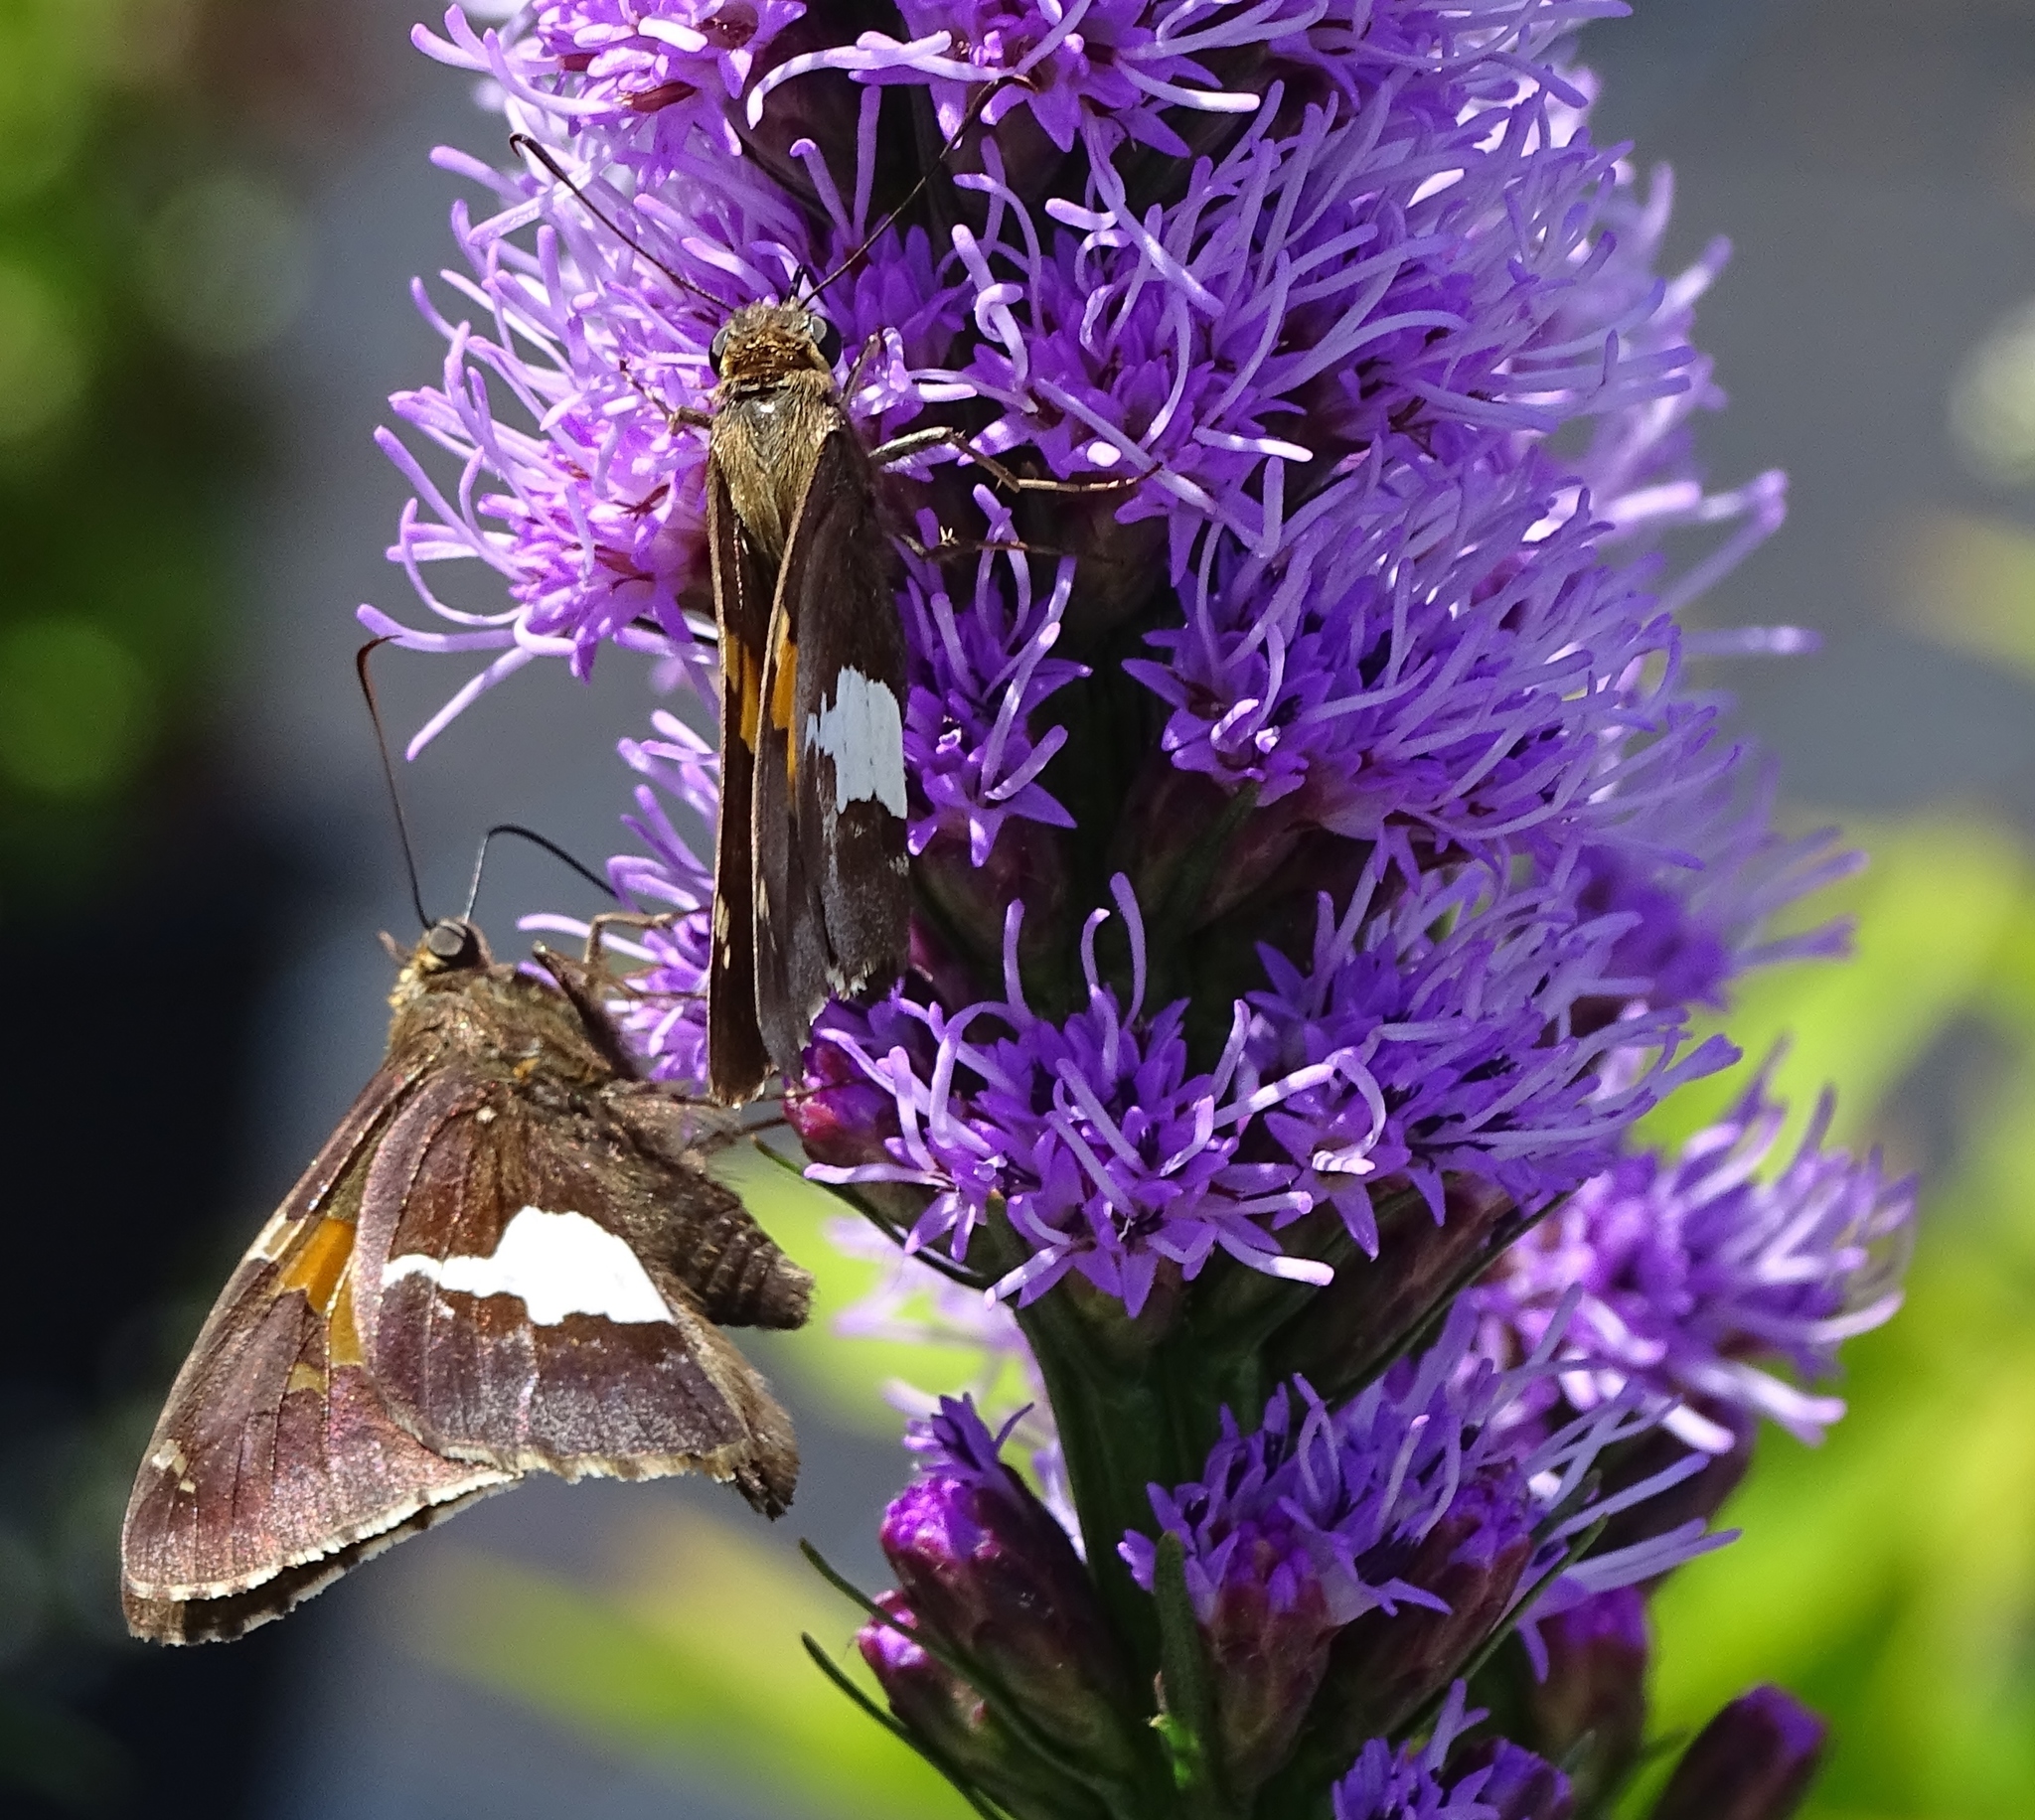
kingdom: Animalia
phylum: Arthropoda
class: Insecta
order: Lepidoptera
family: Hesperiidae
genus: Epargyreus
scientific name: Epargyreus clarus
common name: Silver-spotted skipper
